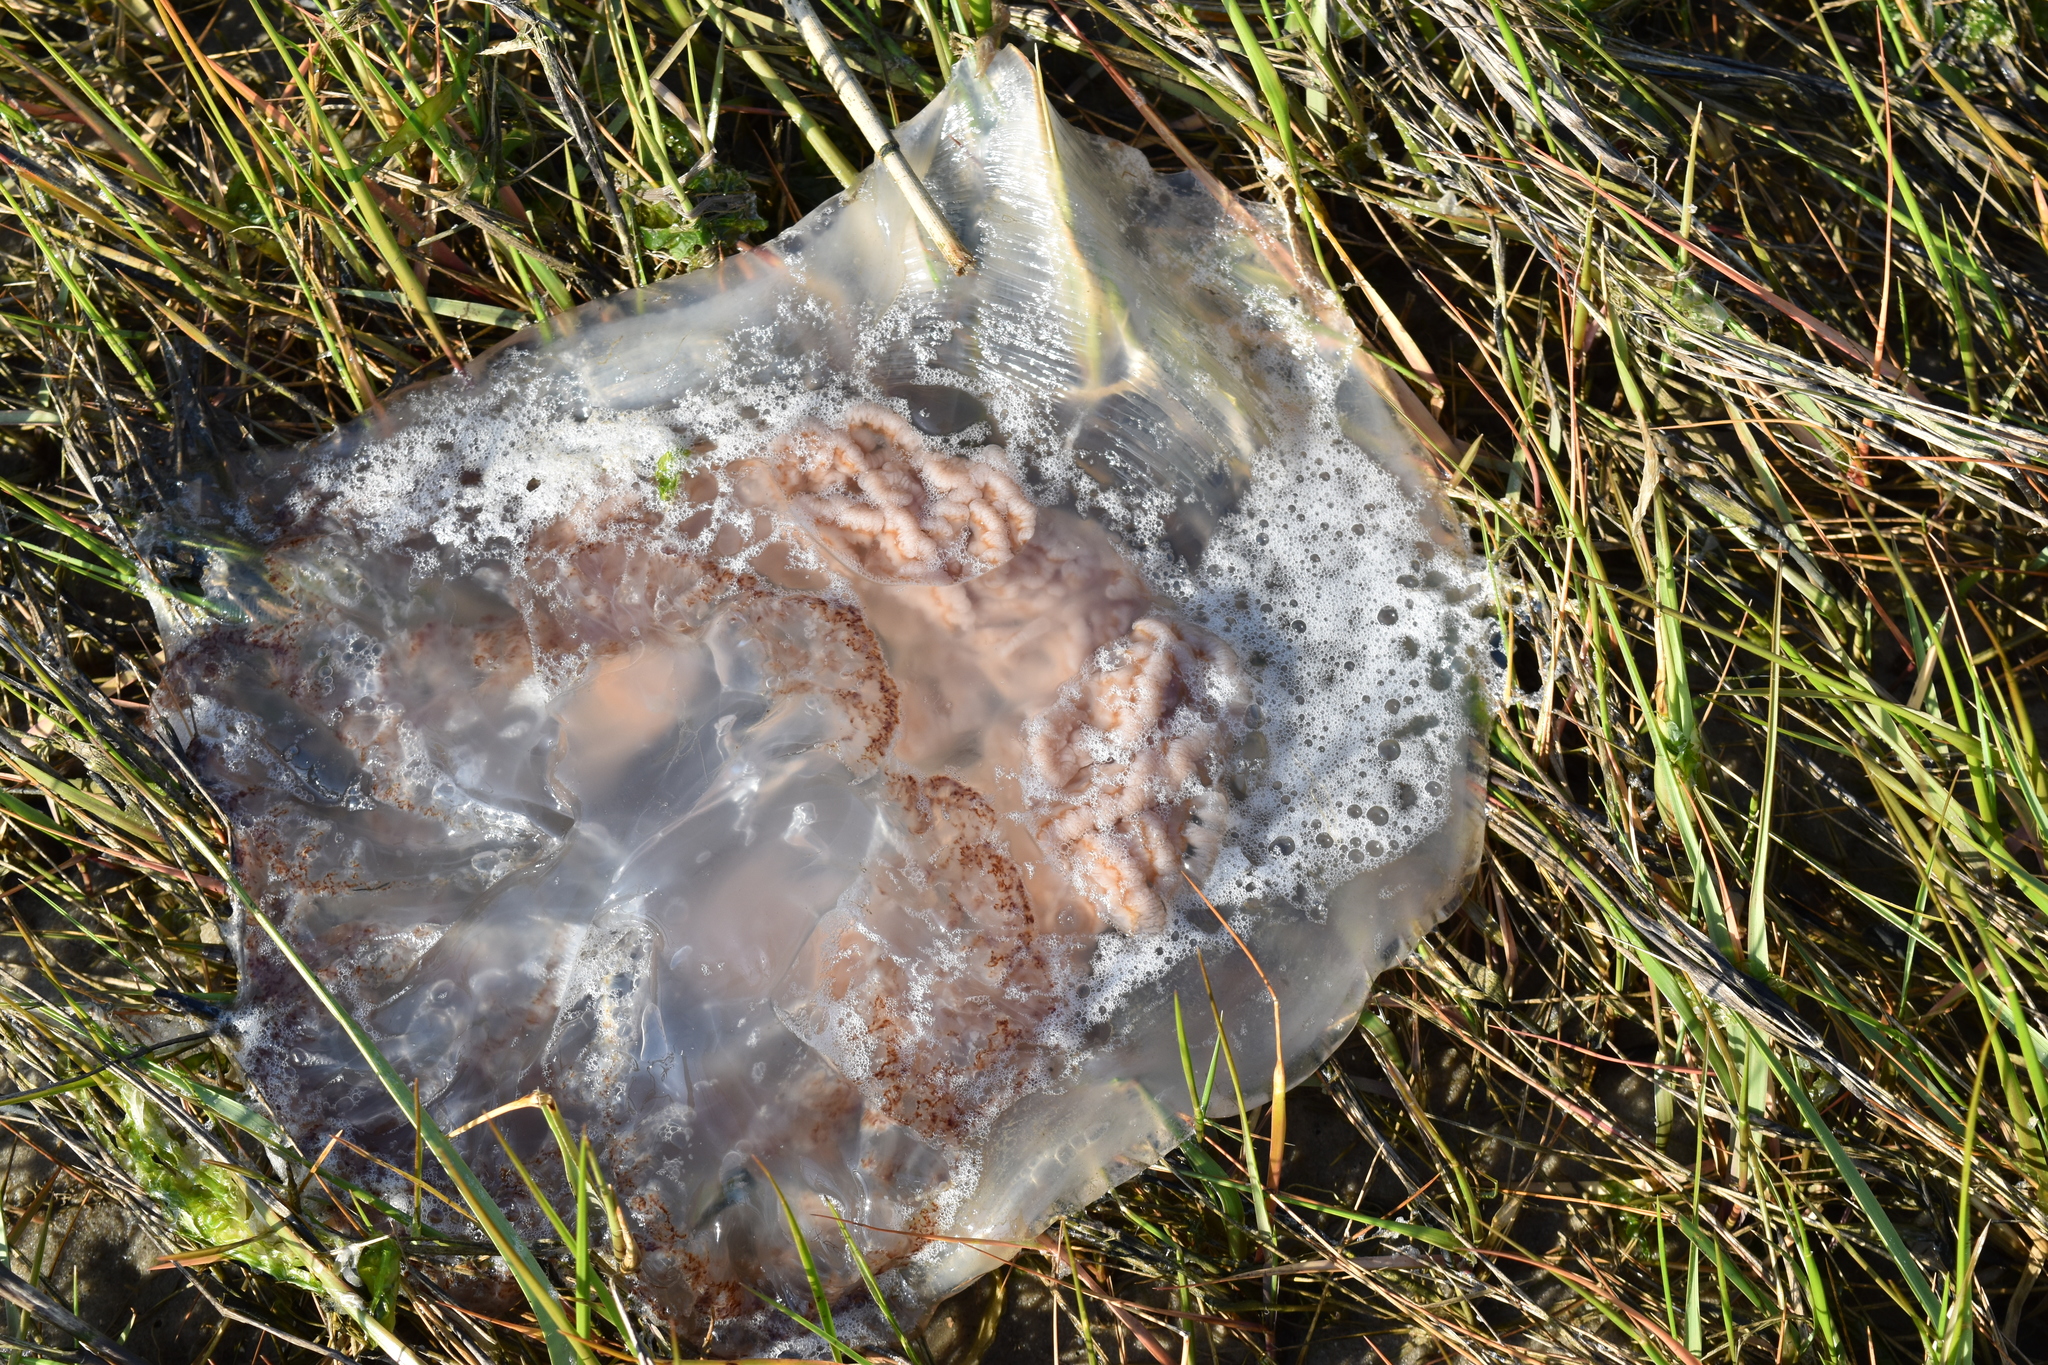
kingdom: Animalia
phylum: Cnidaria
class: Scyphozoa
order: Rhizostomeae
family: Rhizostomatidae
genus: Rhopilema
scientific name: Rhopilema verrilli
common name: Mushroom cap jellyfish
